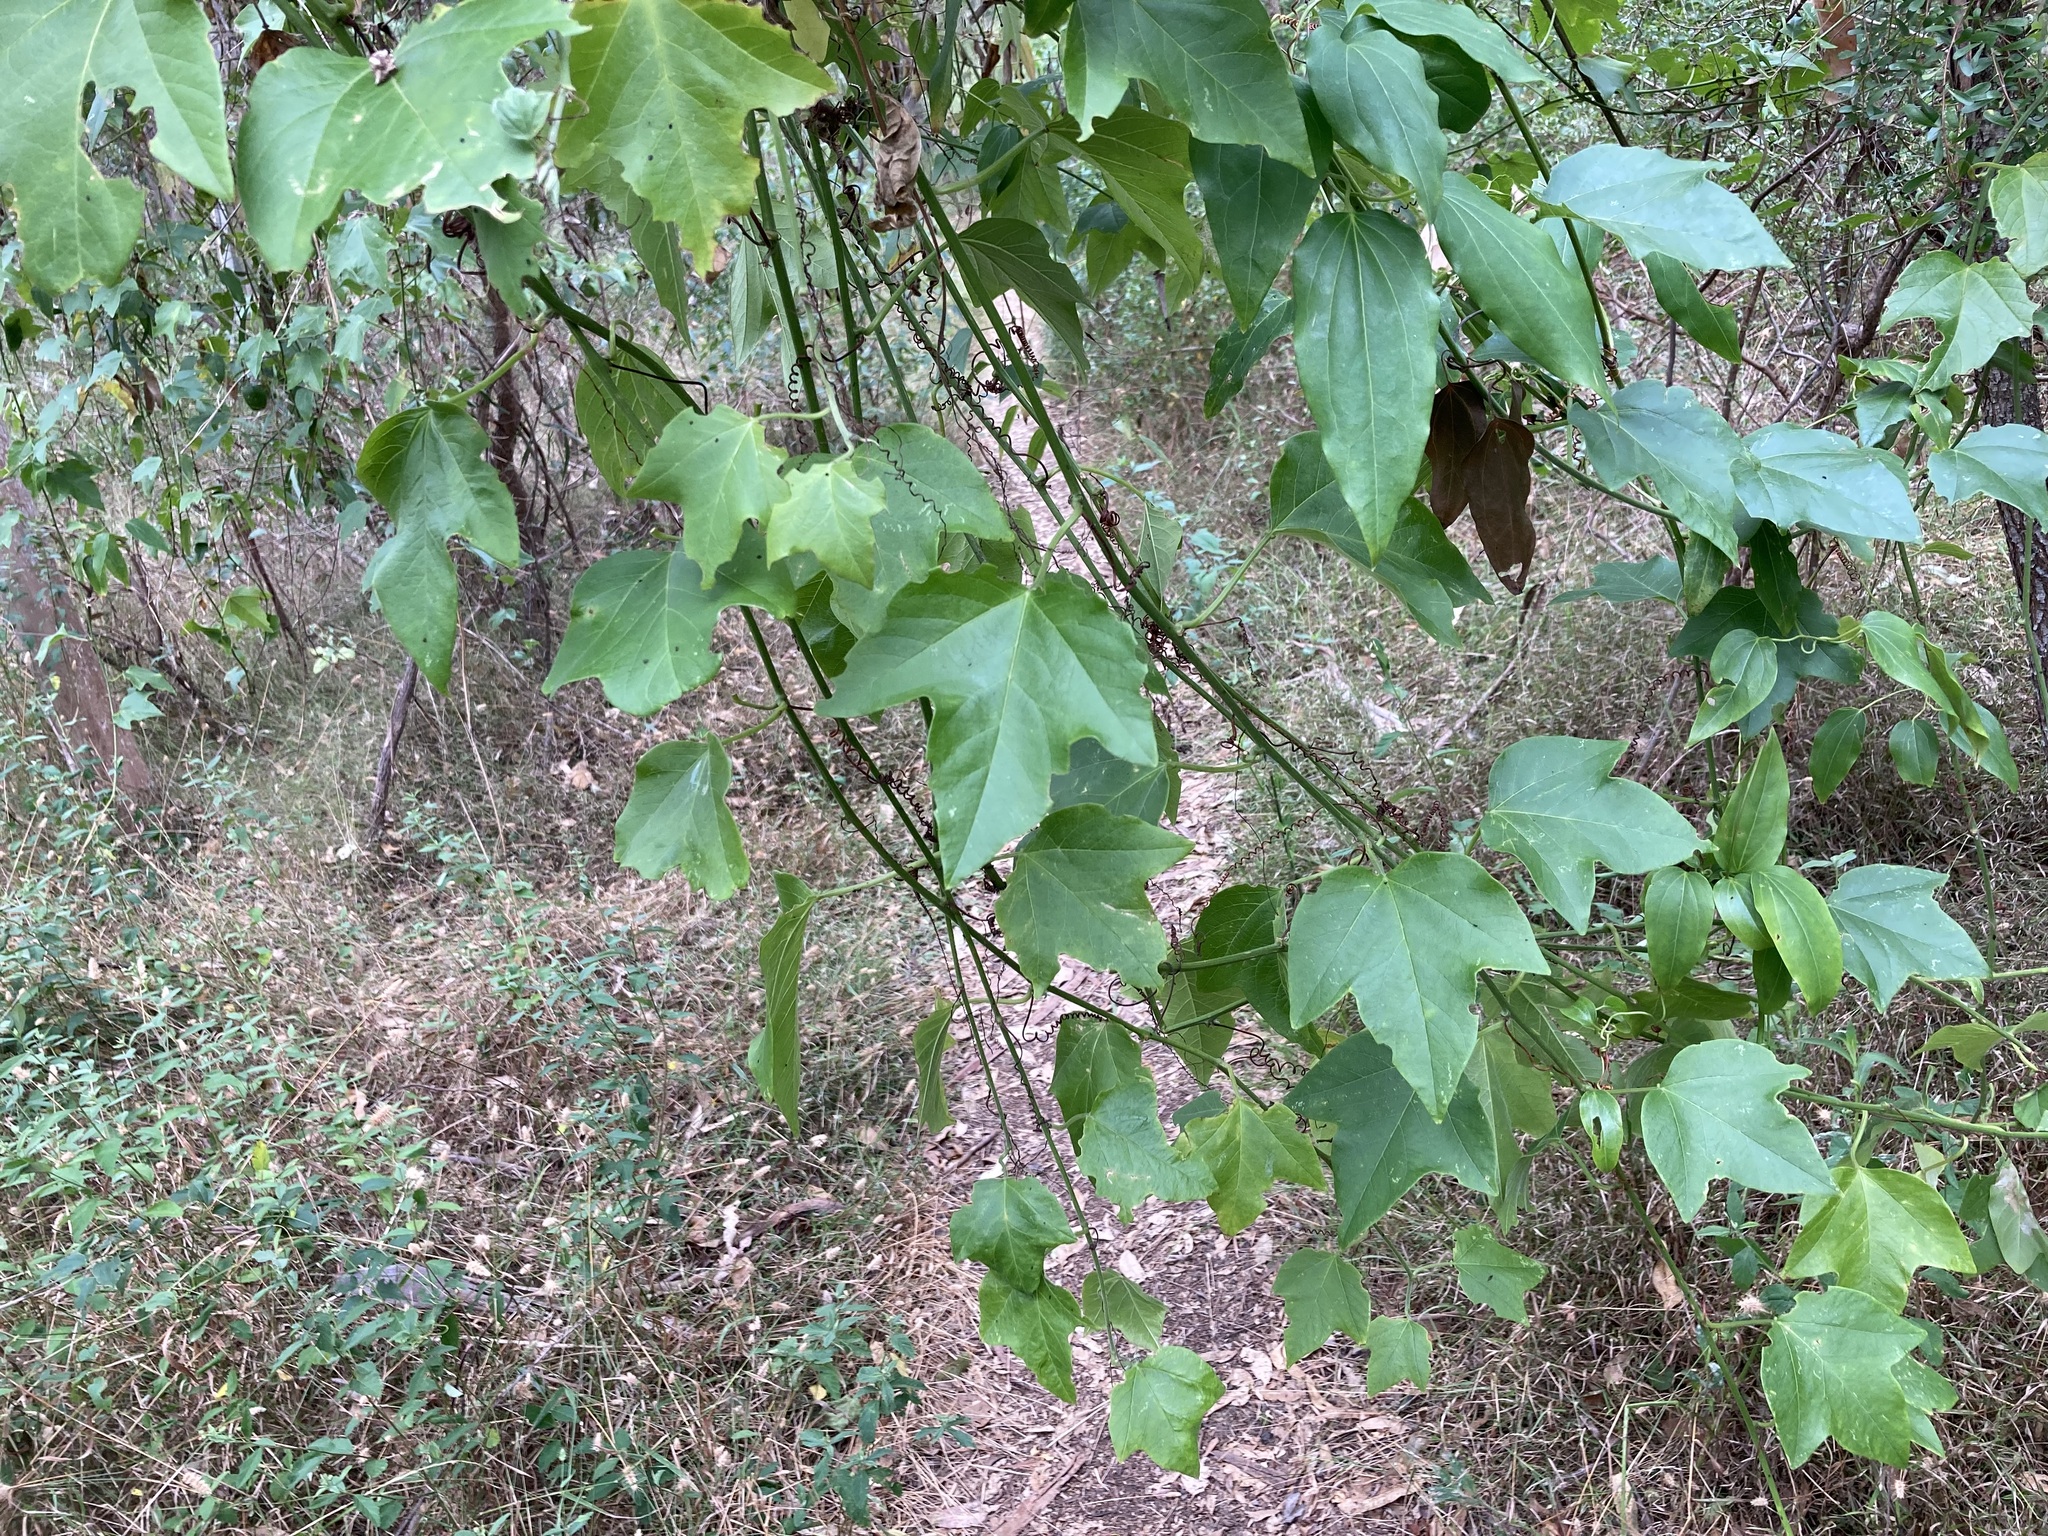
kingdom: Plantae
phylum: Tracheophyta
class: Magnoliopsida
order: Malpighiales
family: Passifloraceae
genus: Passiflora
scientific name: Passiflora herbertiana
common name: Yellow passionflower
